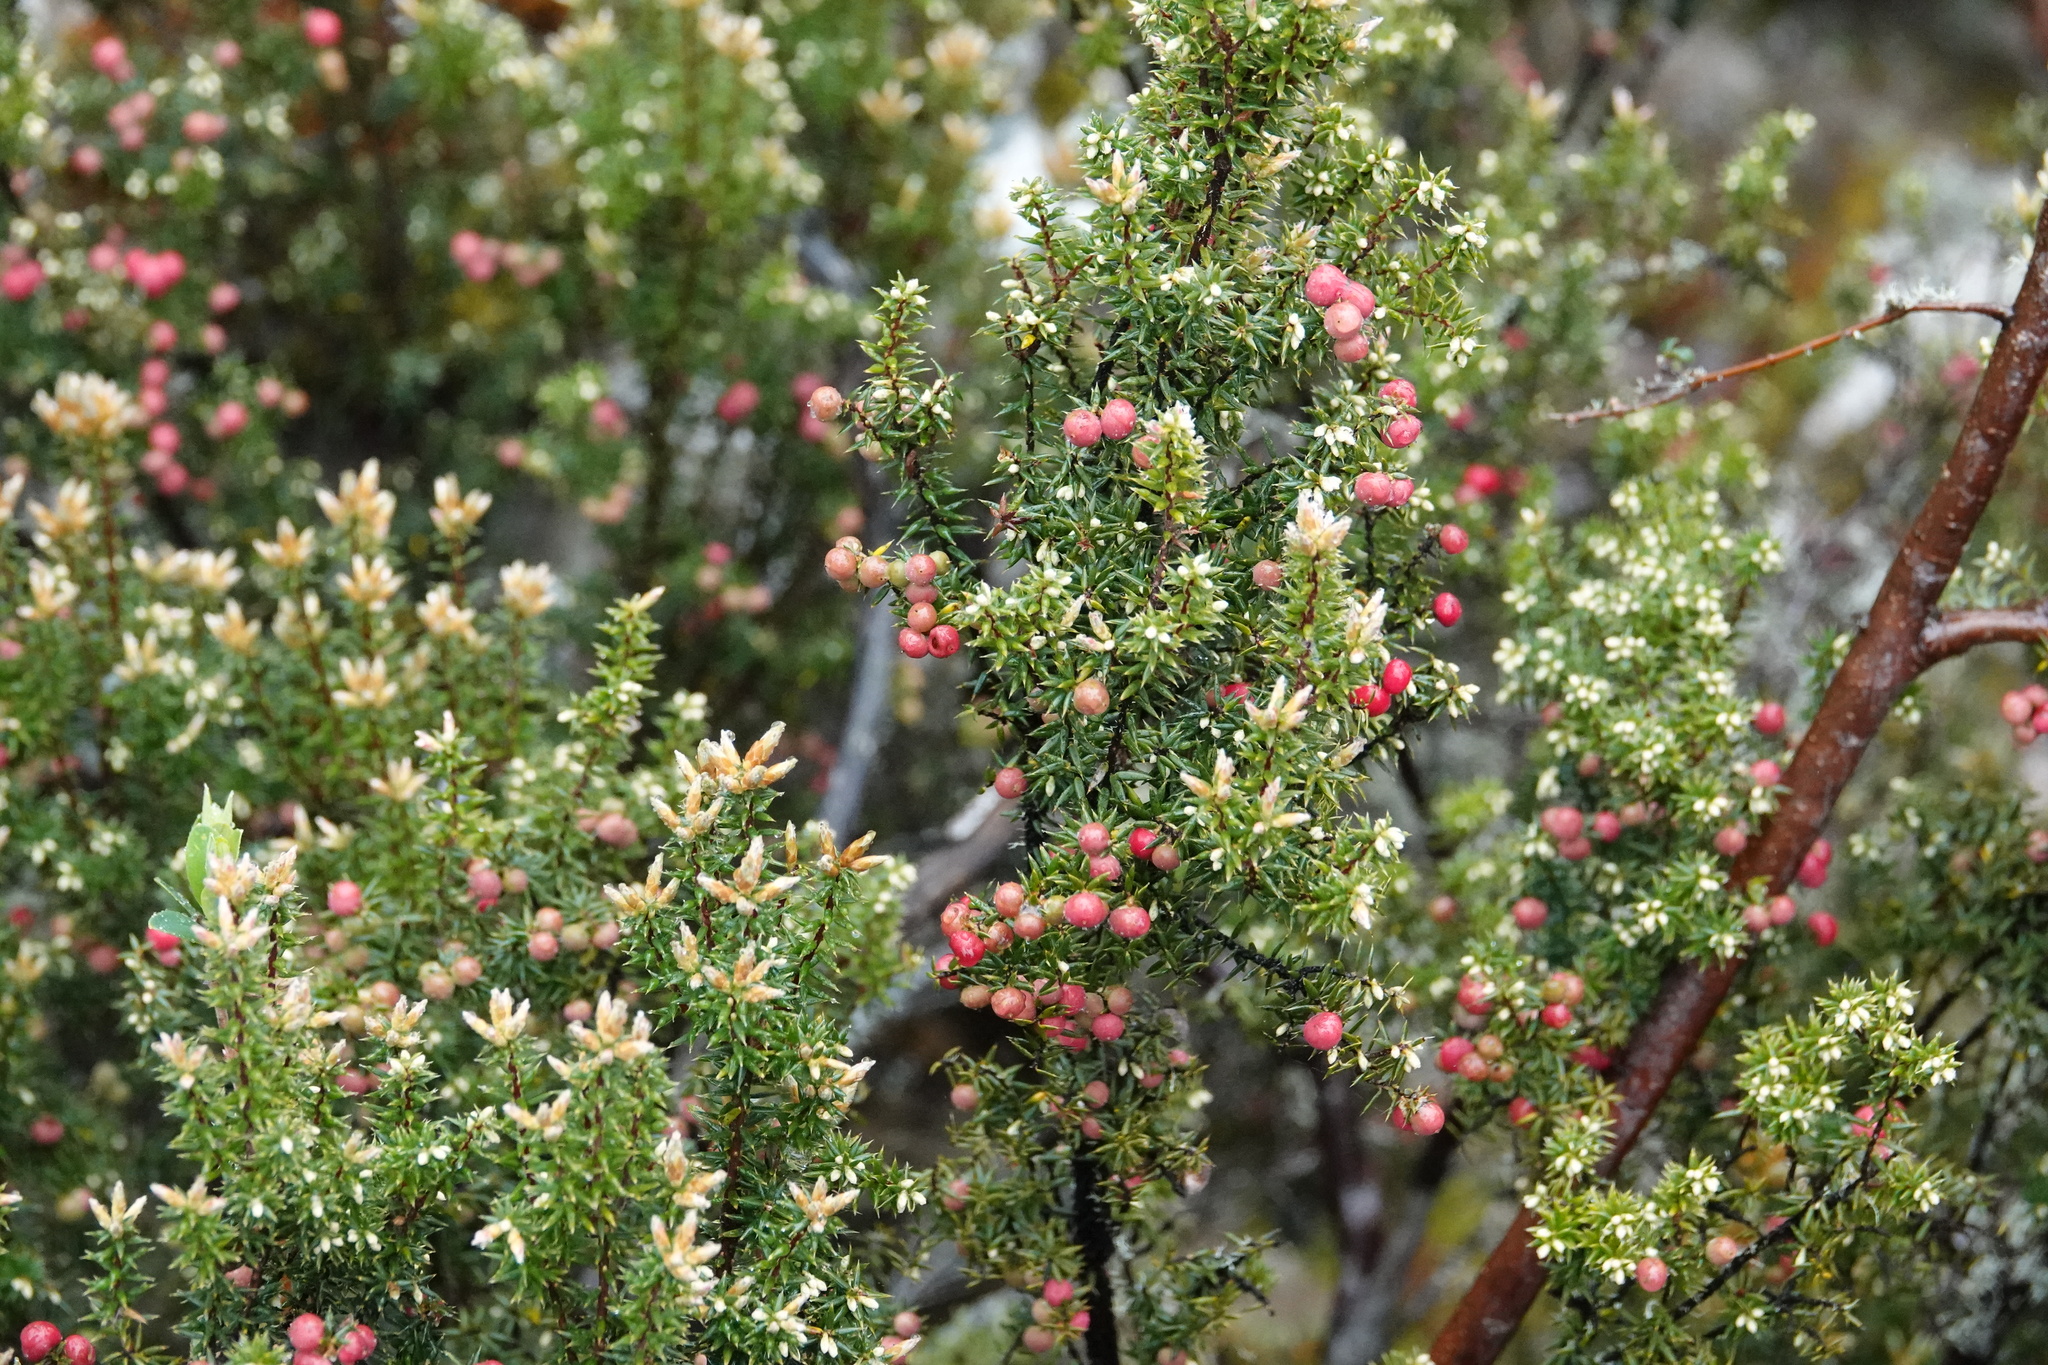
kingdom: Plantae
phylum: Tracheophyta
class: Magnoliopsida
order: Ericales
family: Ericaceae
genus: Leptecophylla
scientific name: Leptecophylla parvifolia
